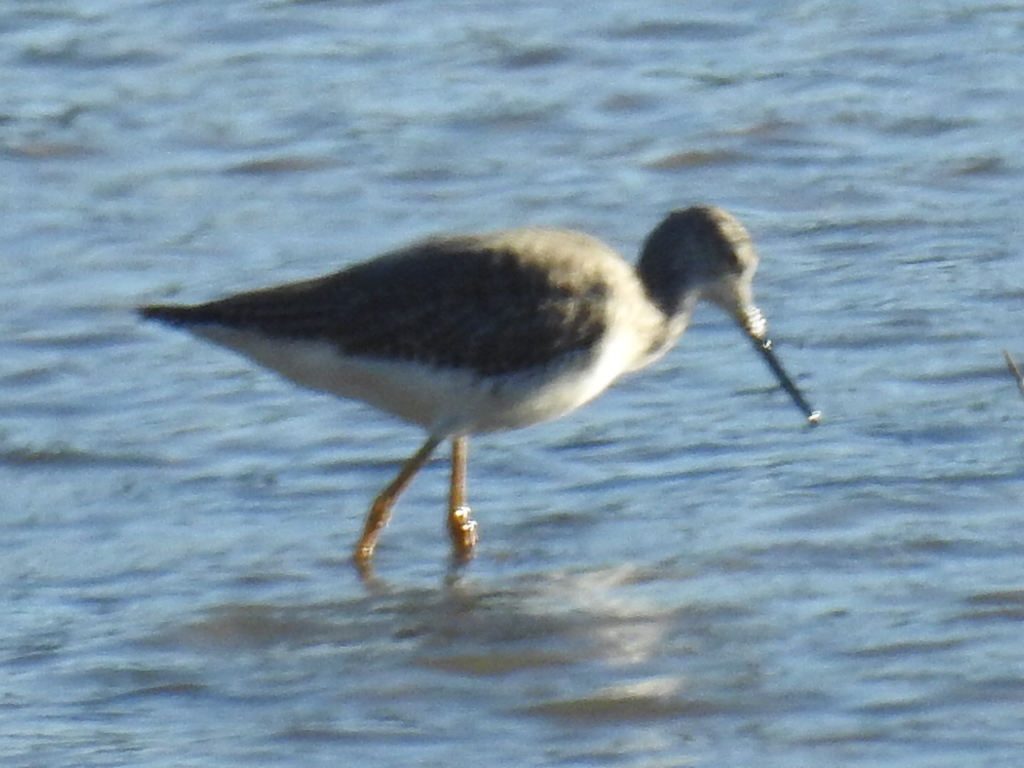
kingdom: Animalia
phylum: Chordata
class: Aves
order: Charadriiformes
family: Scolopacidae
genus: Tringa
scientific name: Tringa melanoleuca
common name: Greater yellowlegs
